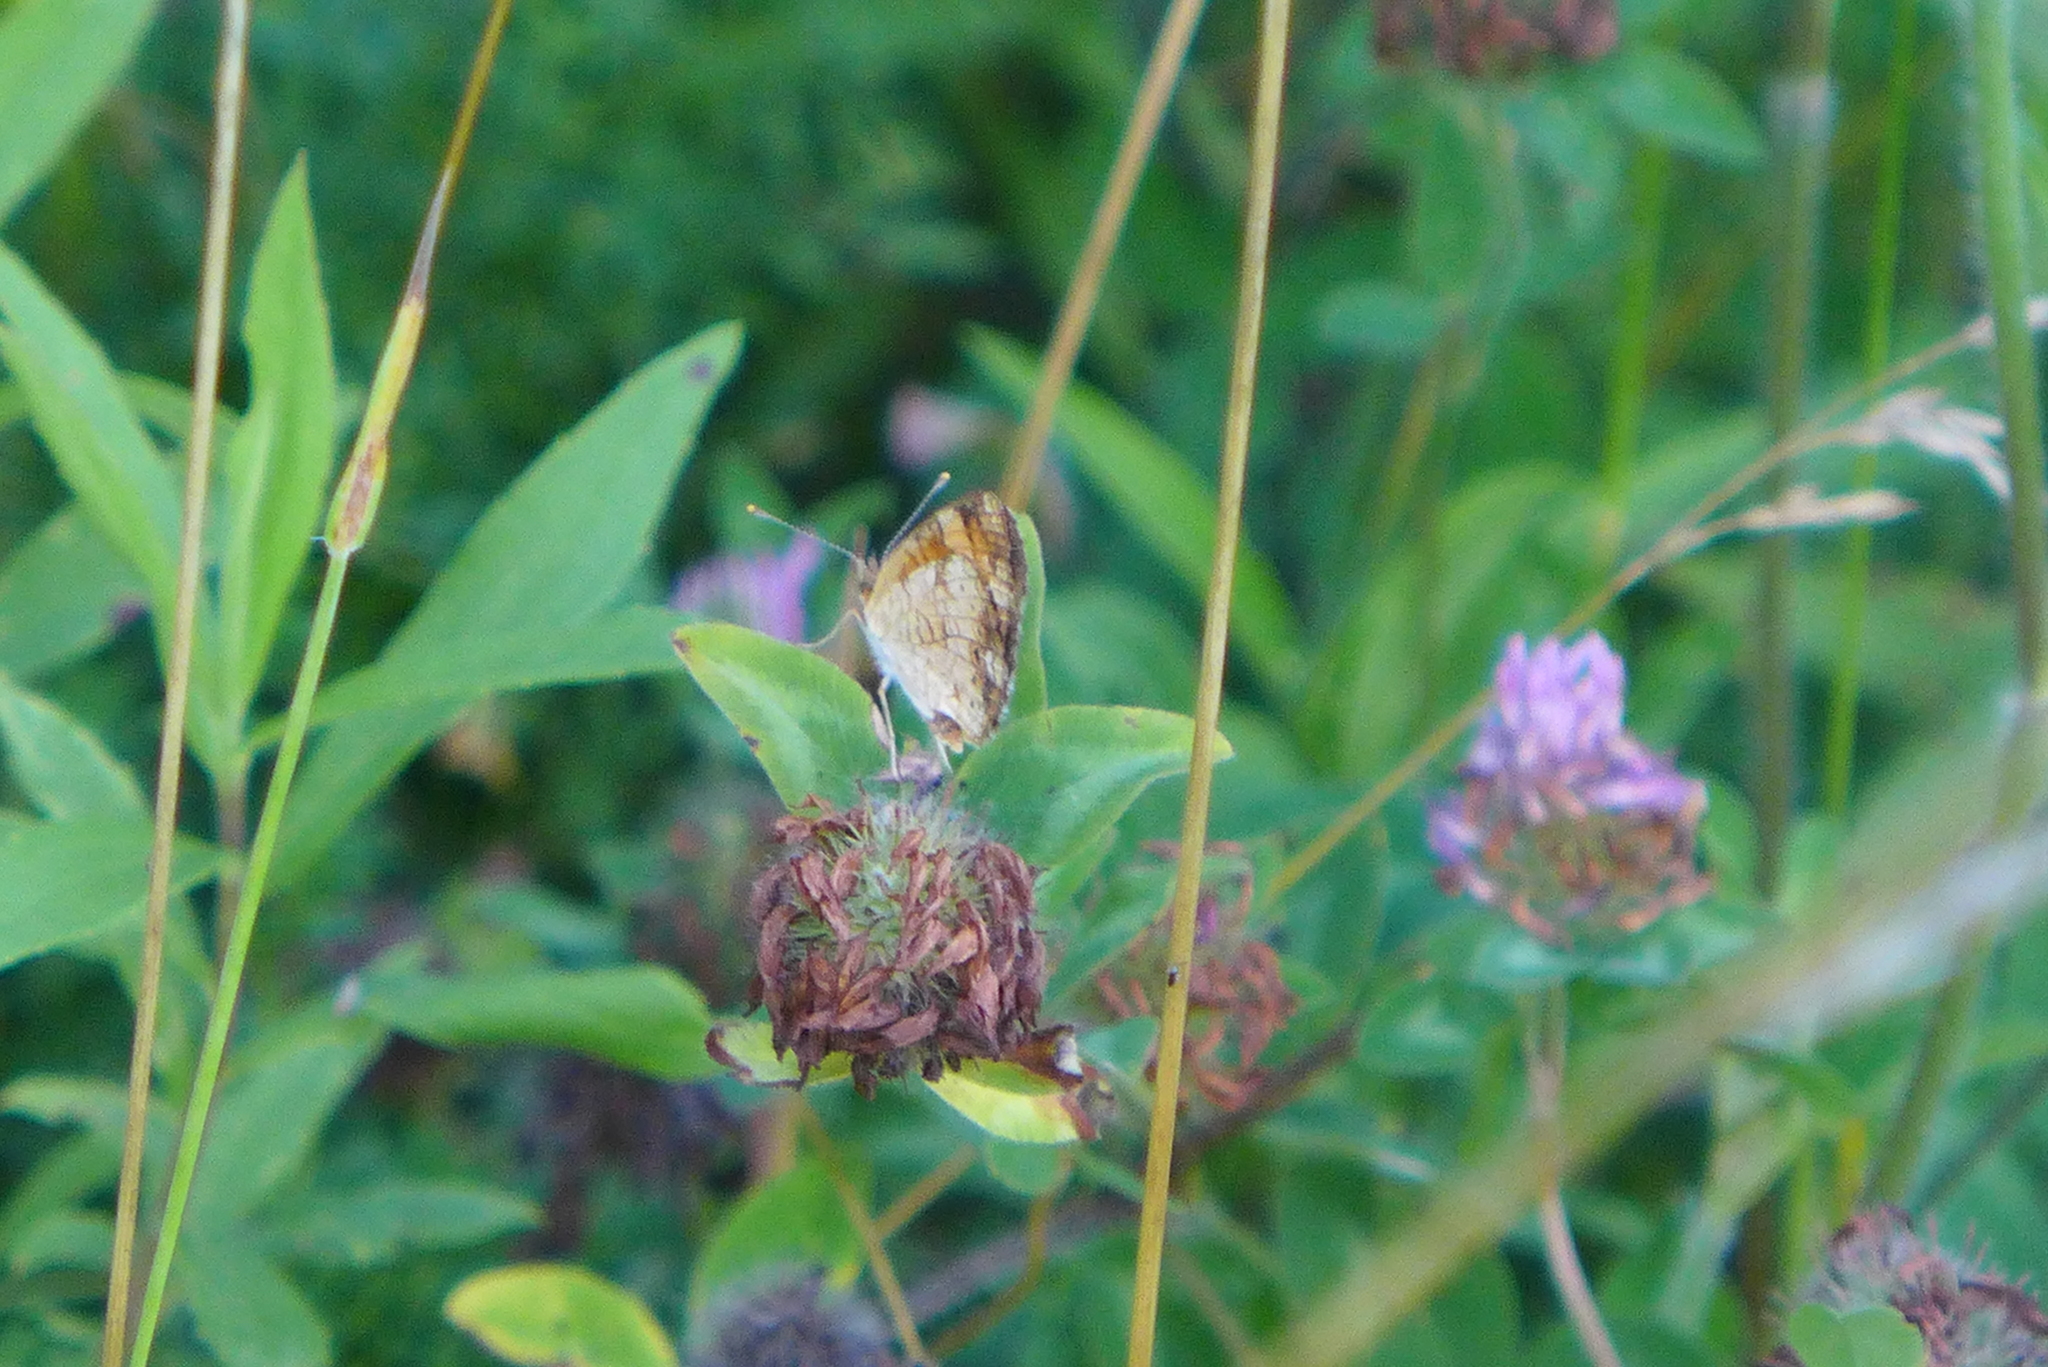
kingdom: Animalia
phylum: Arthropoda
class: Insecta
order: Lepidoptera
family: Nymphalidae
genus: Phyciodes
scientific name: Phyciodes tharos
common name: Pearl crescent
